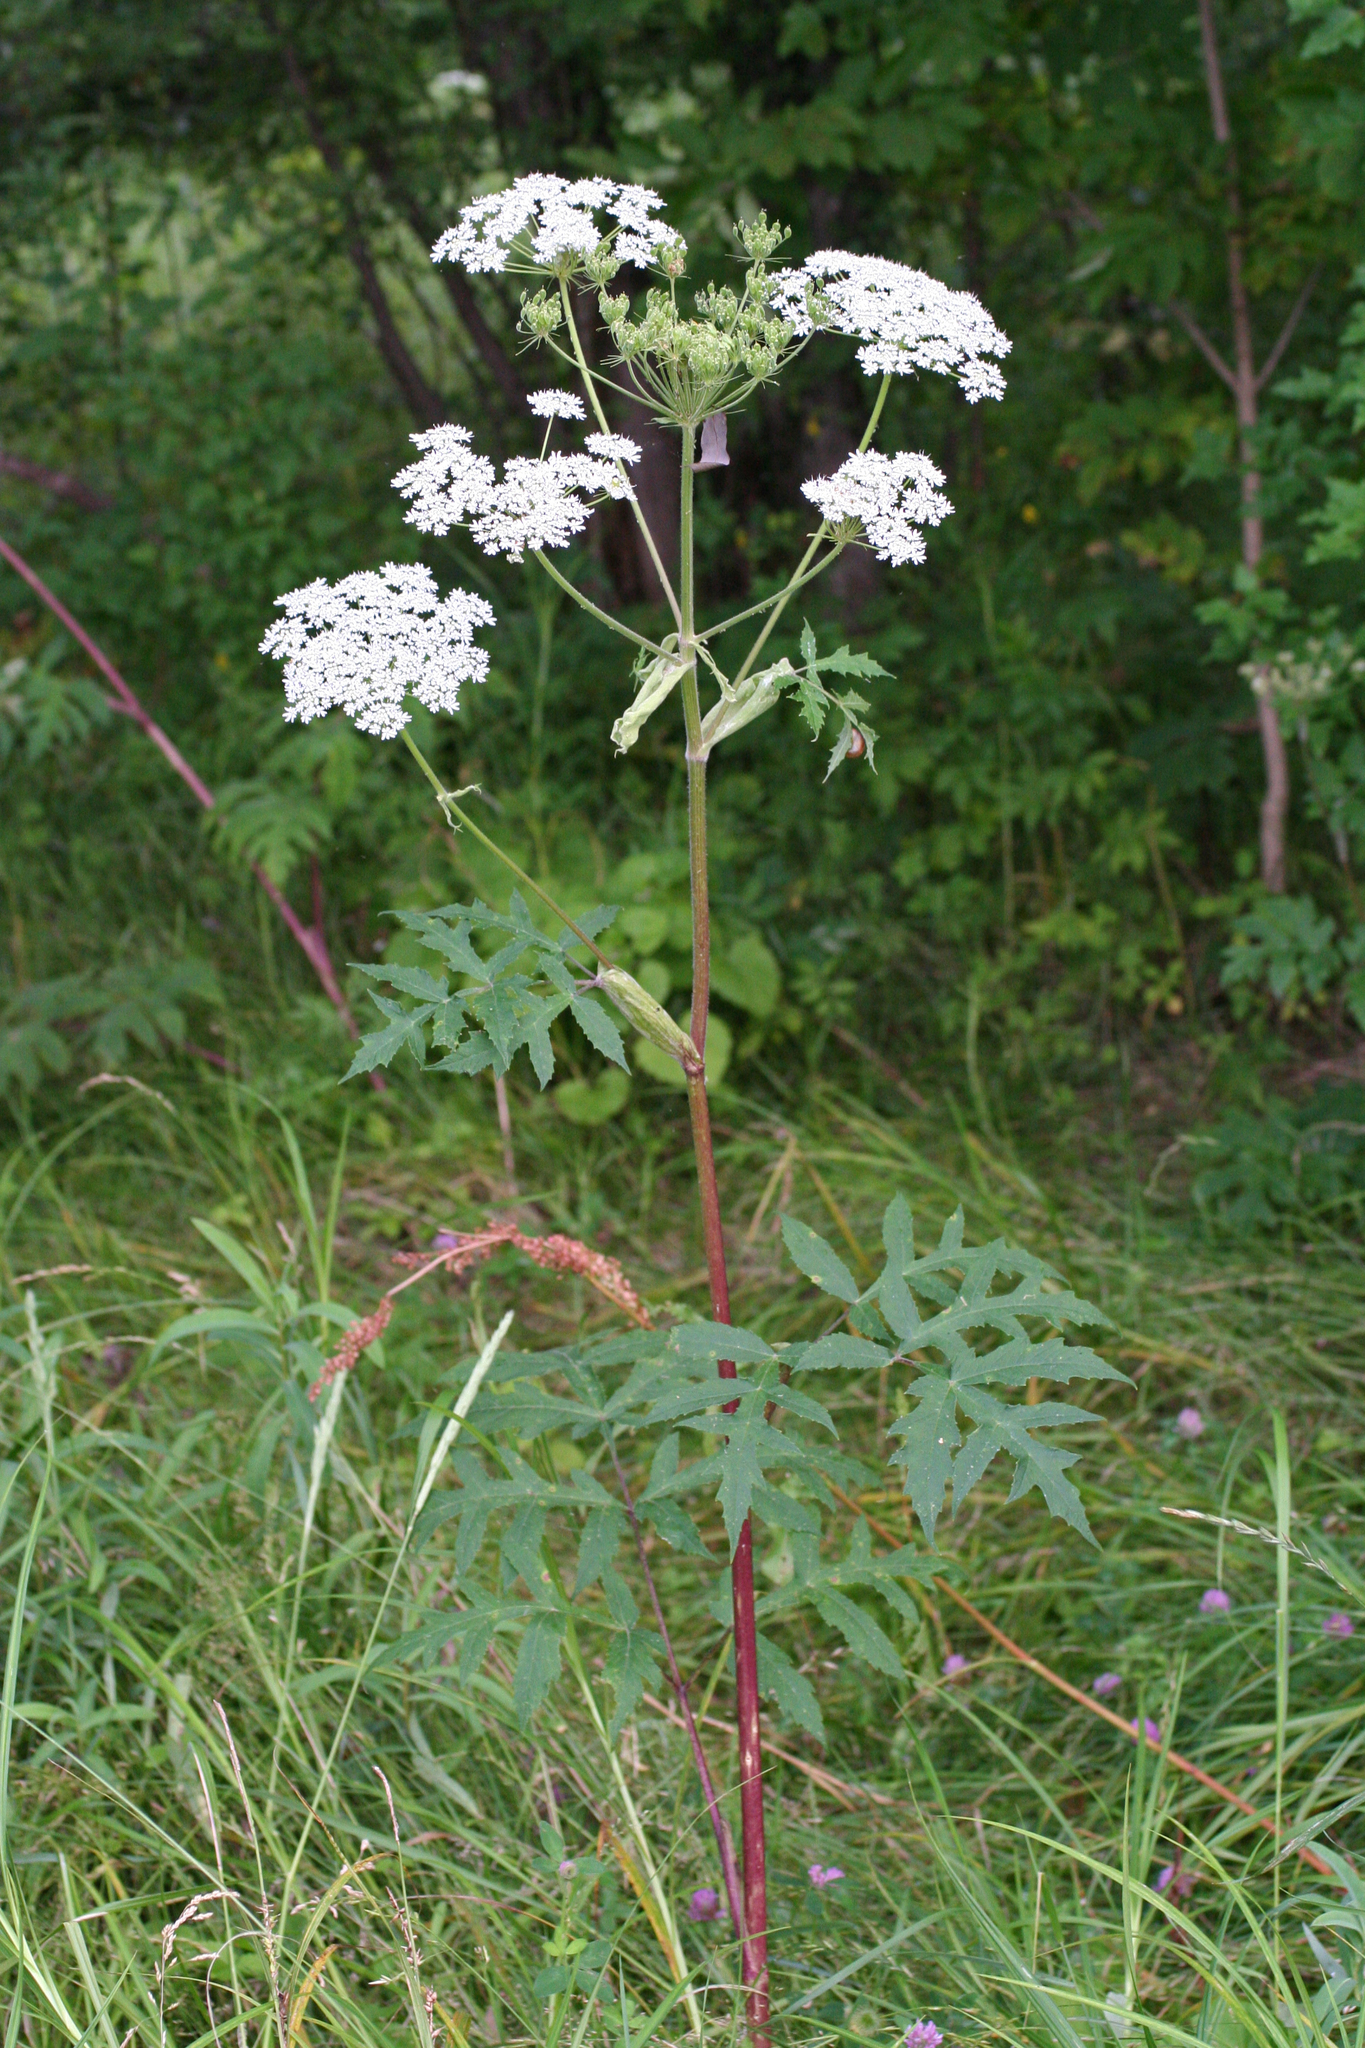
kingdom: Plantae
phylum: Tracheophyta
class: Magnoliopsida
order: Apiales
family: Apiaceae
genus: Angelica
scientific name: Angelica dahurica
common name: Dahurian angelica
